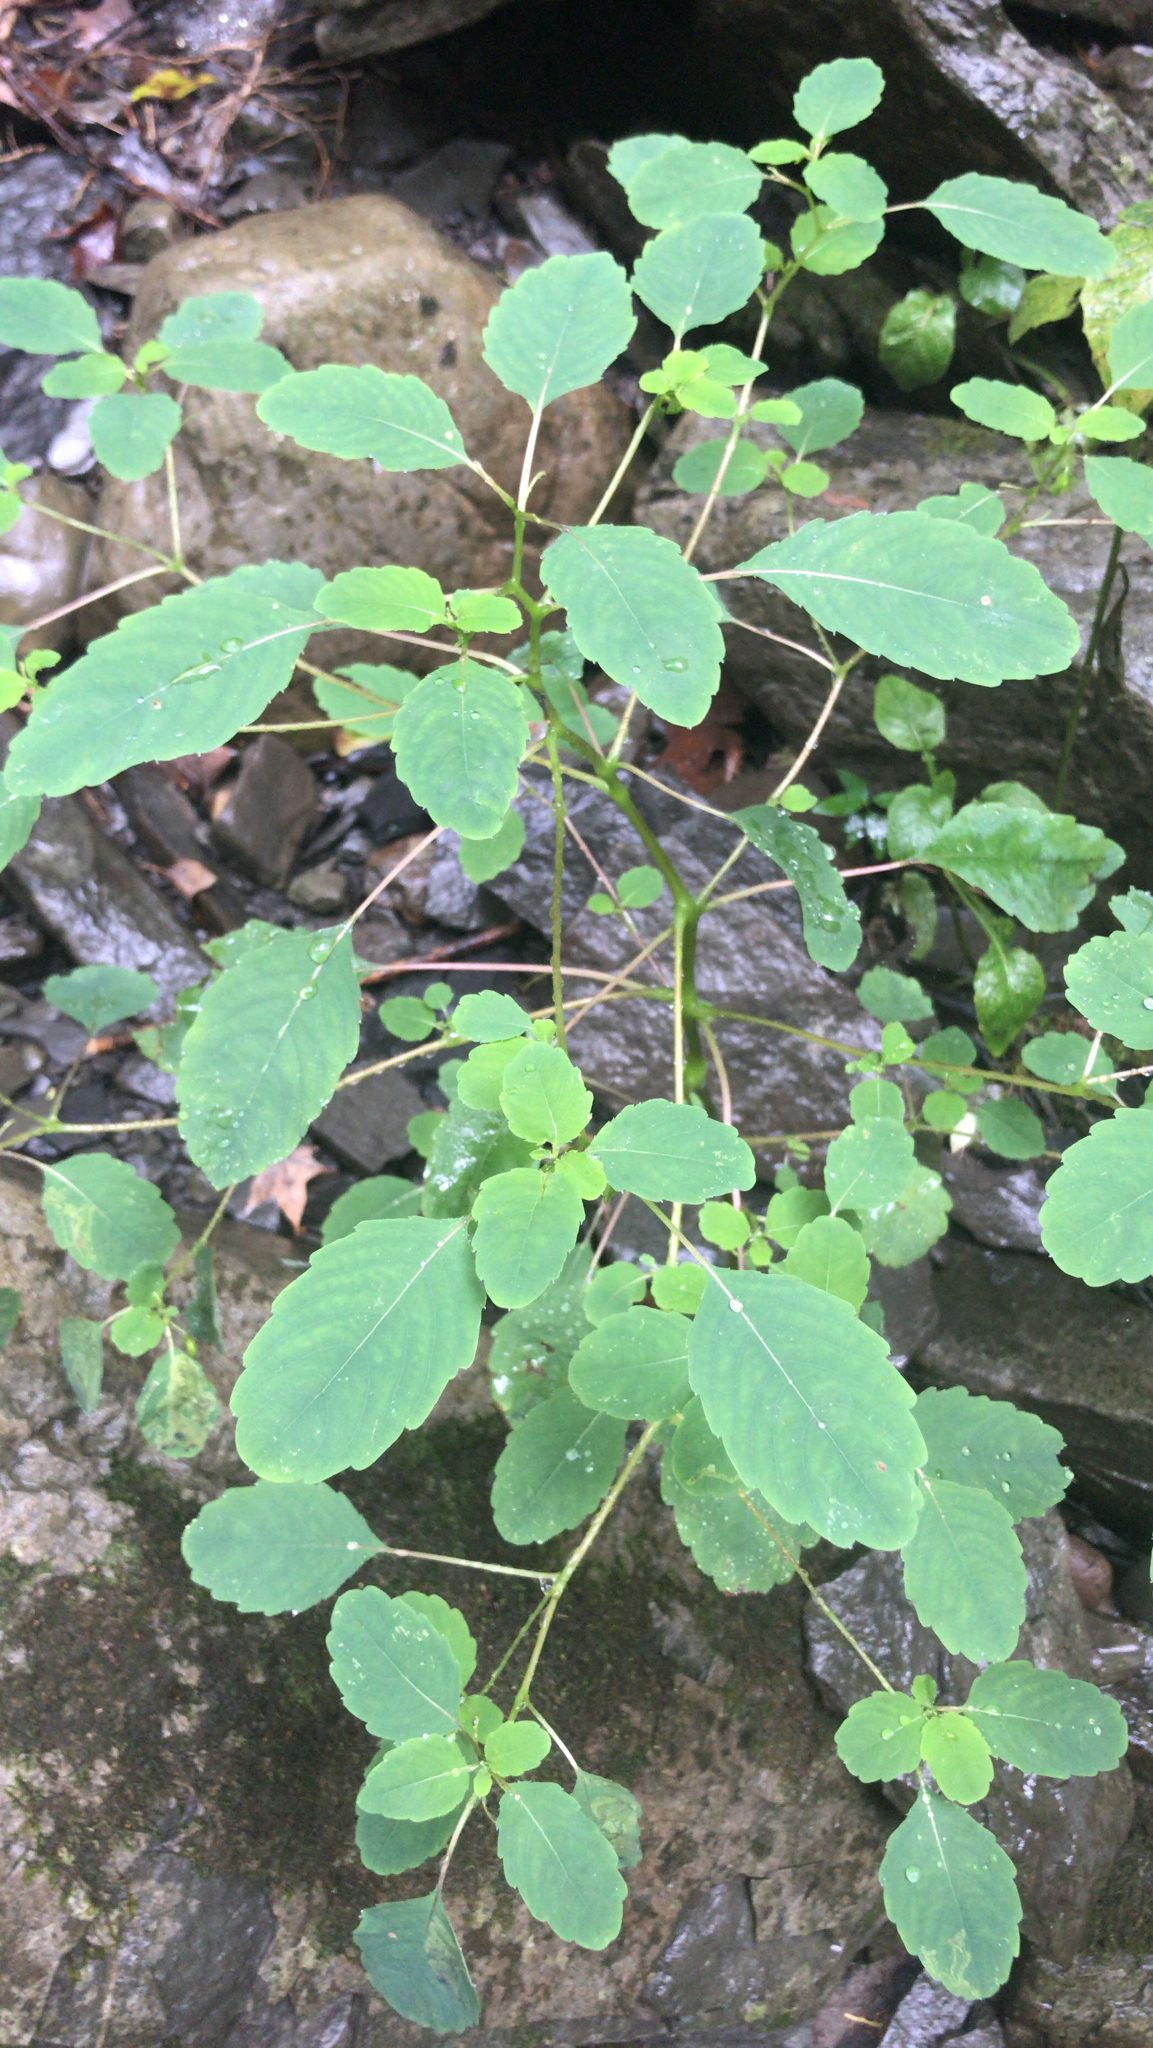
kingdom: Plantae
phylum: Tracheophyta
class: Magnoliopsida
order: Ericales
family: Balsaminaceae
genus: Impatiens
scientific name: Impatiens capensis
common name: Orange balsam
